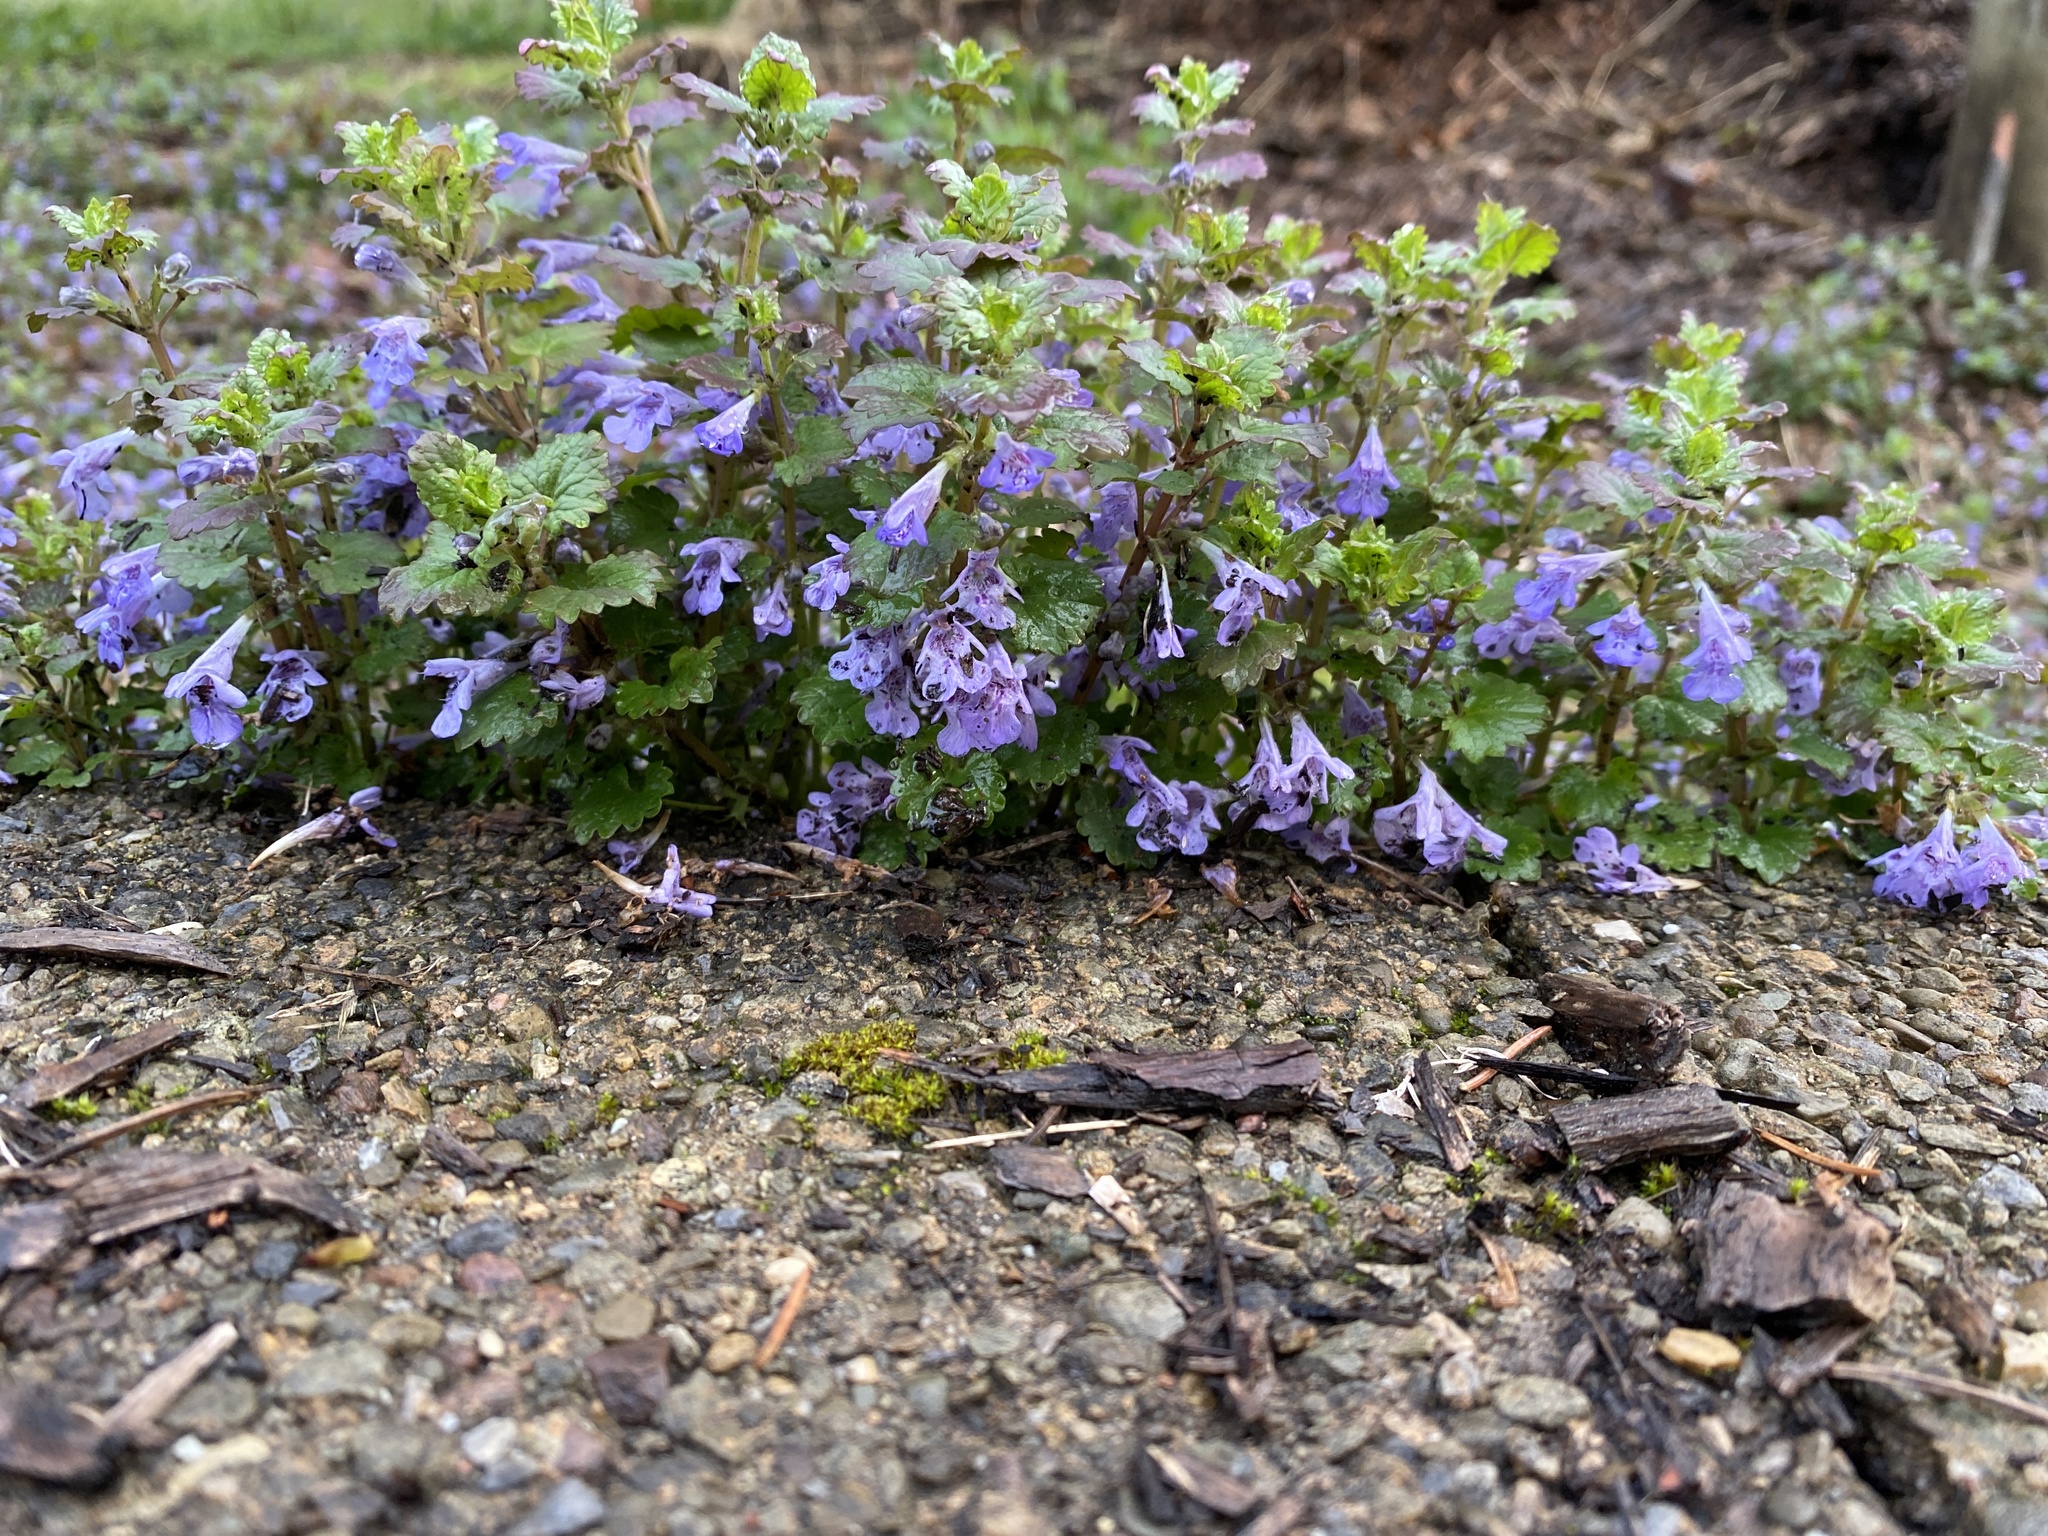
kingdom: Plantae
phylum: Tracheophyta
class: Magnoliopsida
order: Lamiales
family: Lamiaceae
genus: Glechoma
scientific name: Glechoma hederacea
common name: Ground ivy
